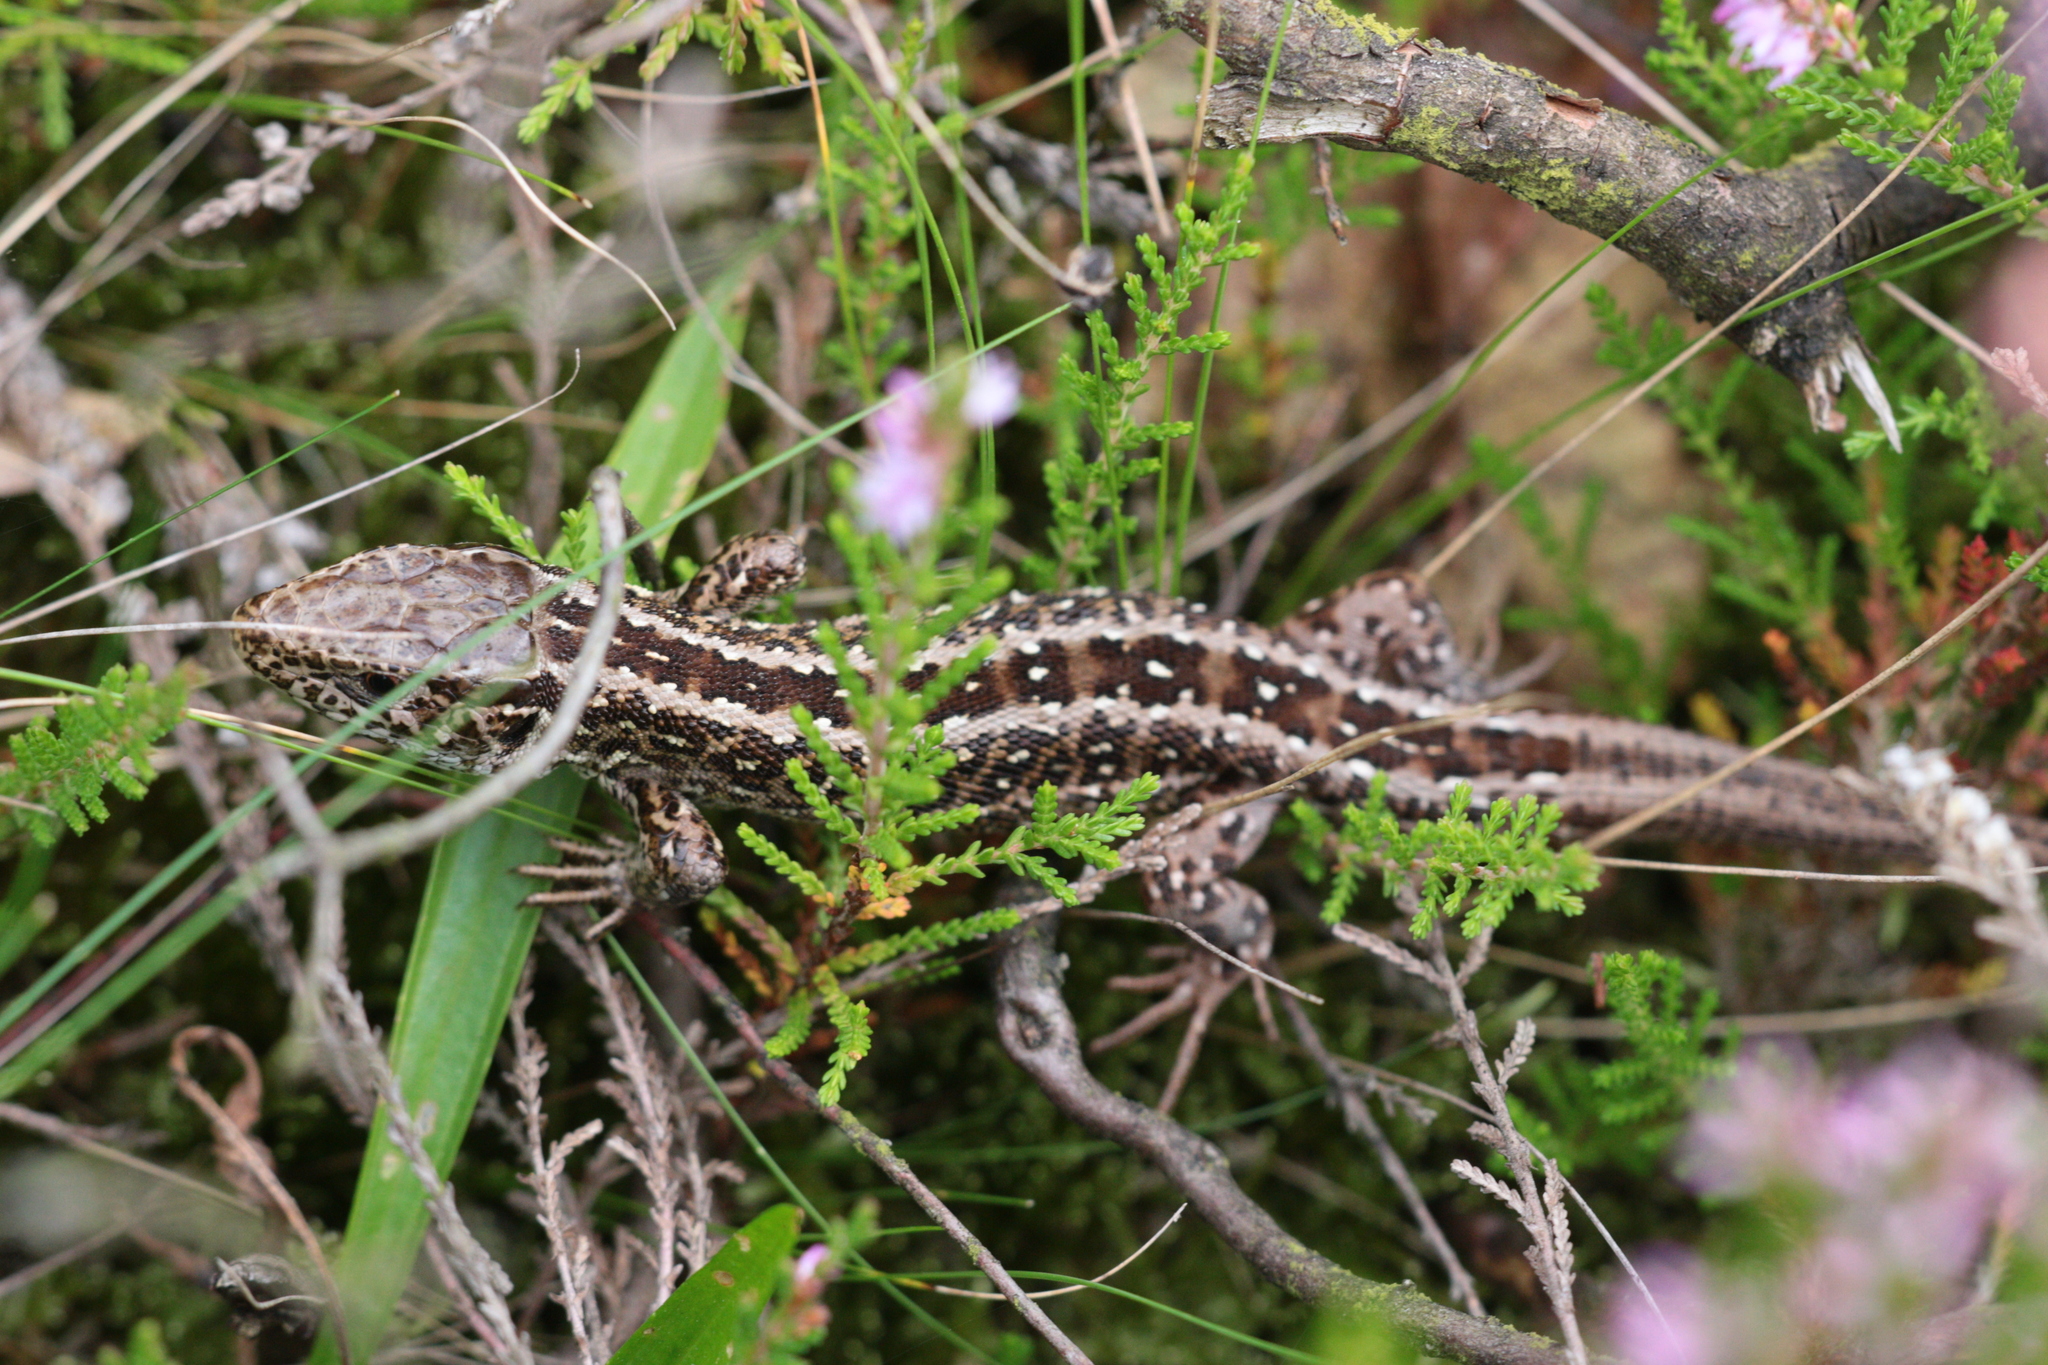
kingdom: Animalia
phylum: Chordata
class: Squamata
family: Lacertidae
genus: Lacerta
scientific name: Lacerta agilis
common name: Sand lizard
